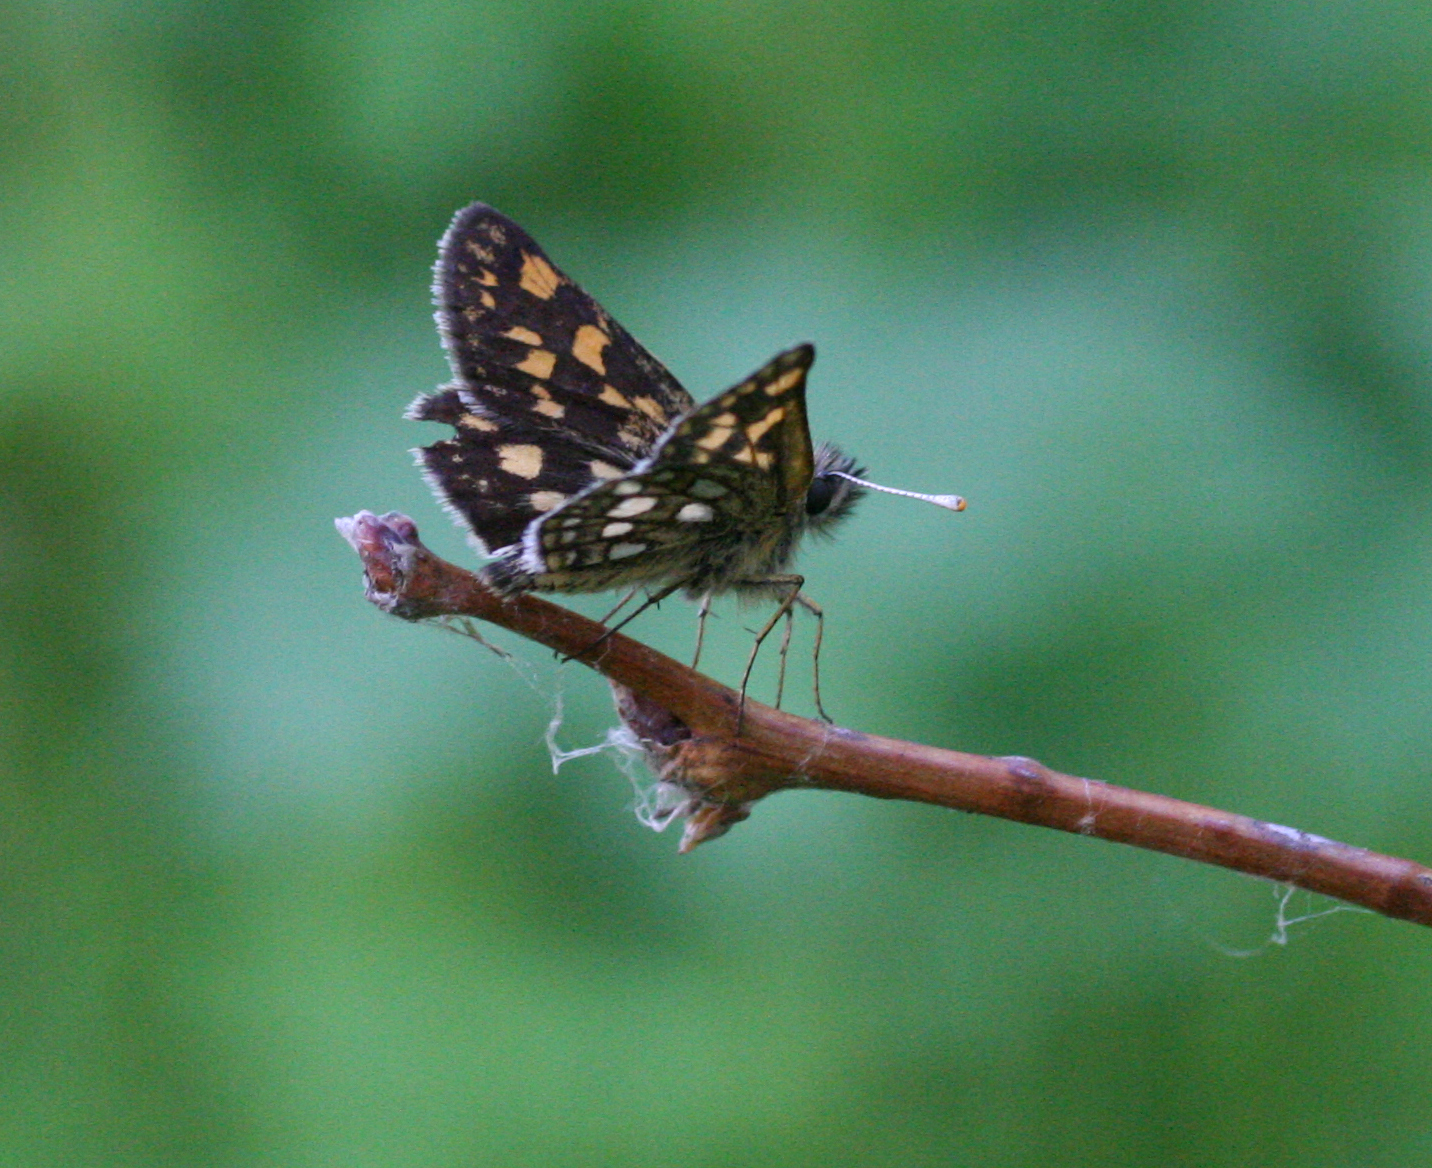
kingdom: Animalia
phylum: Arthropoda
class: Insecta
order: Lepidoptera
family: Hesperiidae
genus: Carterocephalus
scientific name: Carterocephalus palaemon
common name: Chequered skipper
